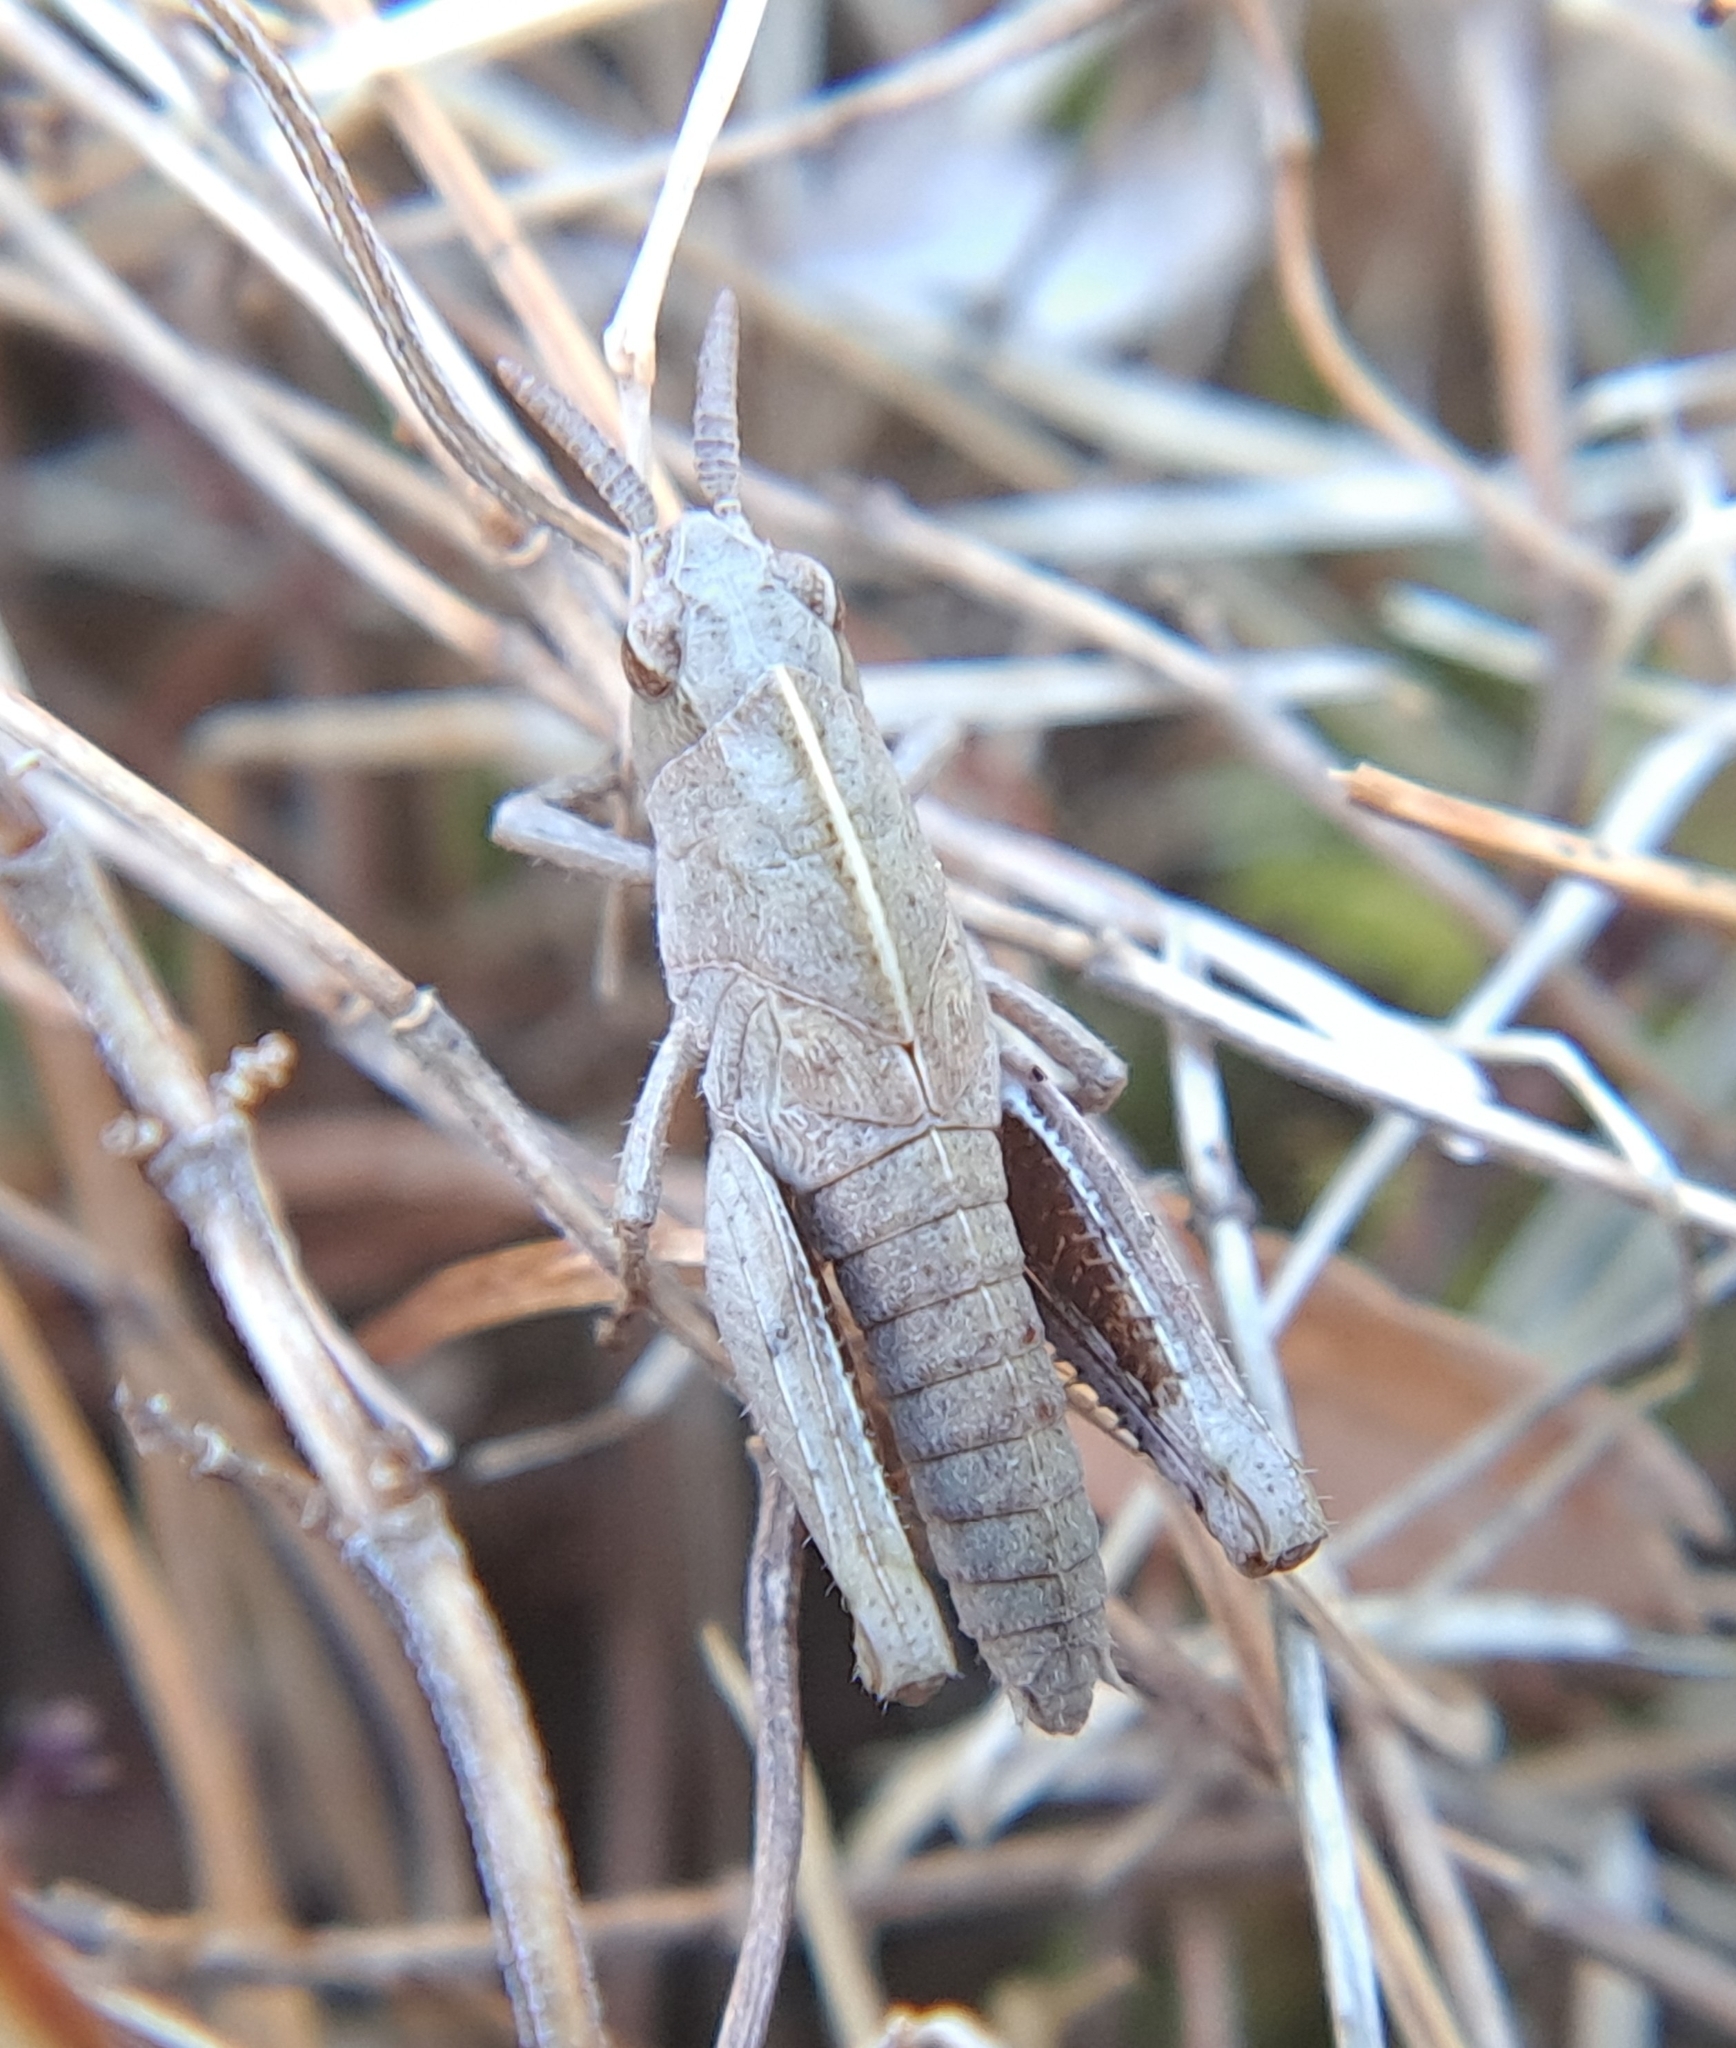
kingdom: Animalia
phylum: Arthropoda
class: Insecta
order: Orthoptera
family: Acrididae
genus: Chortophaga
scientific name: Chortophaga viridifasciata
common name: Green-striped grasshopper
